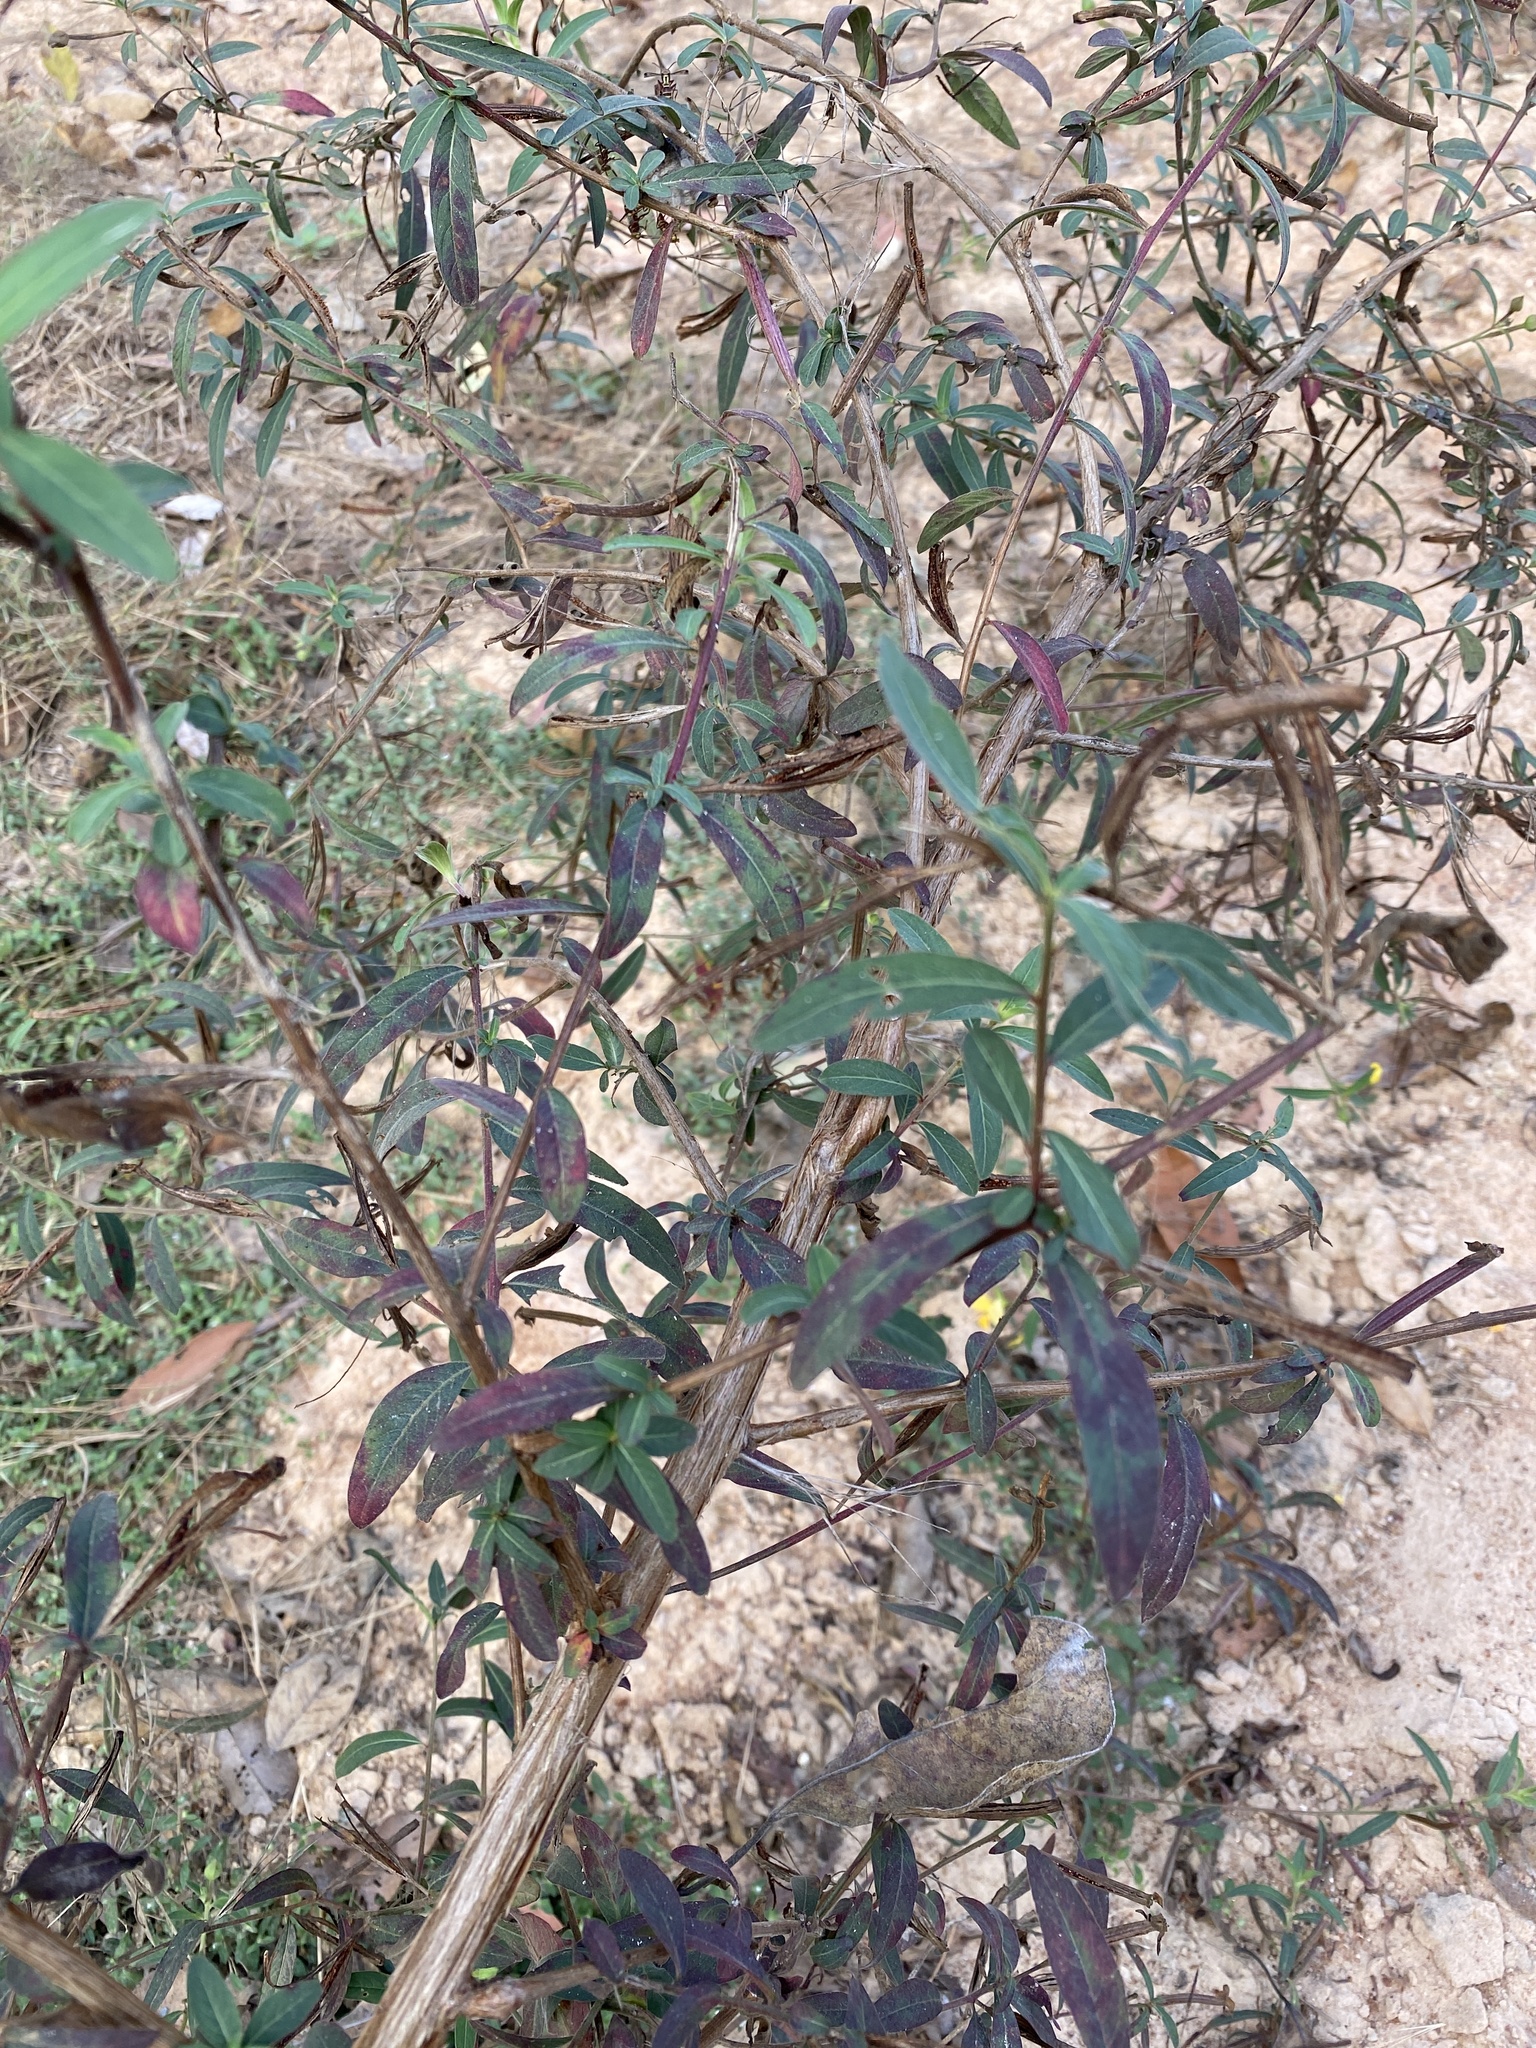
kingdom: Plantae
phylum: Tracheophyta
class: Magnoliopsida
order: Myrtales
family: Onagraceae
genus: Ludwigia
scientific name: Ludwigia octovalvis
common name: Water-primrose
